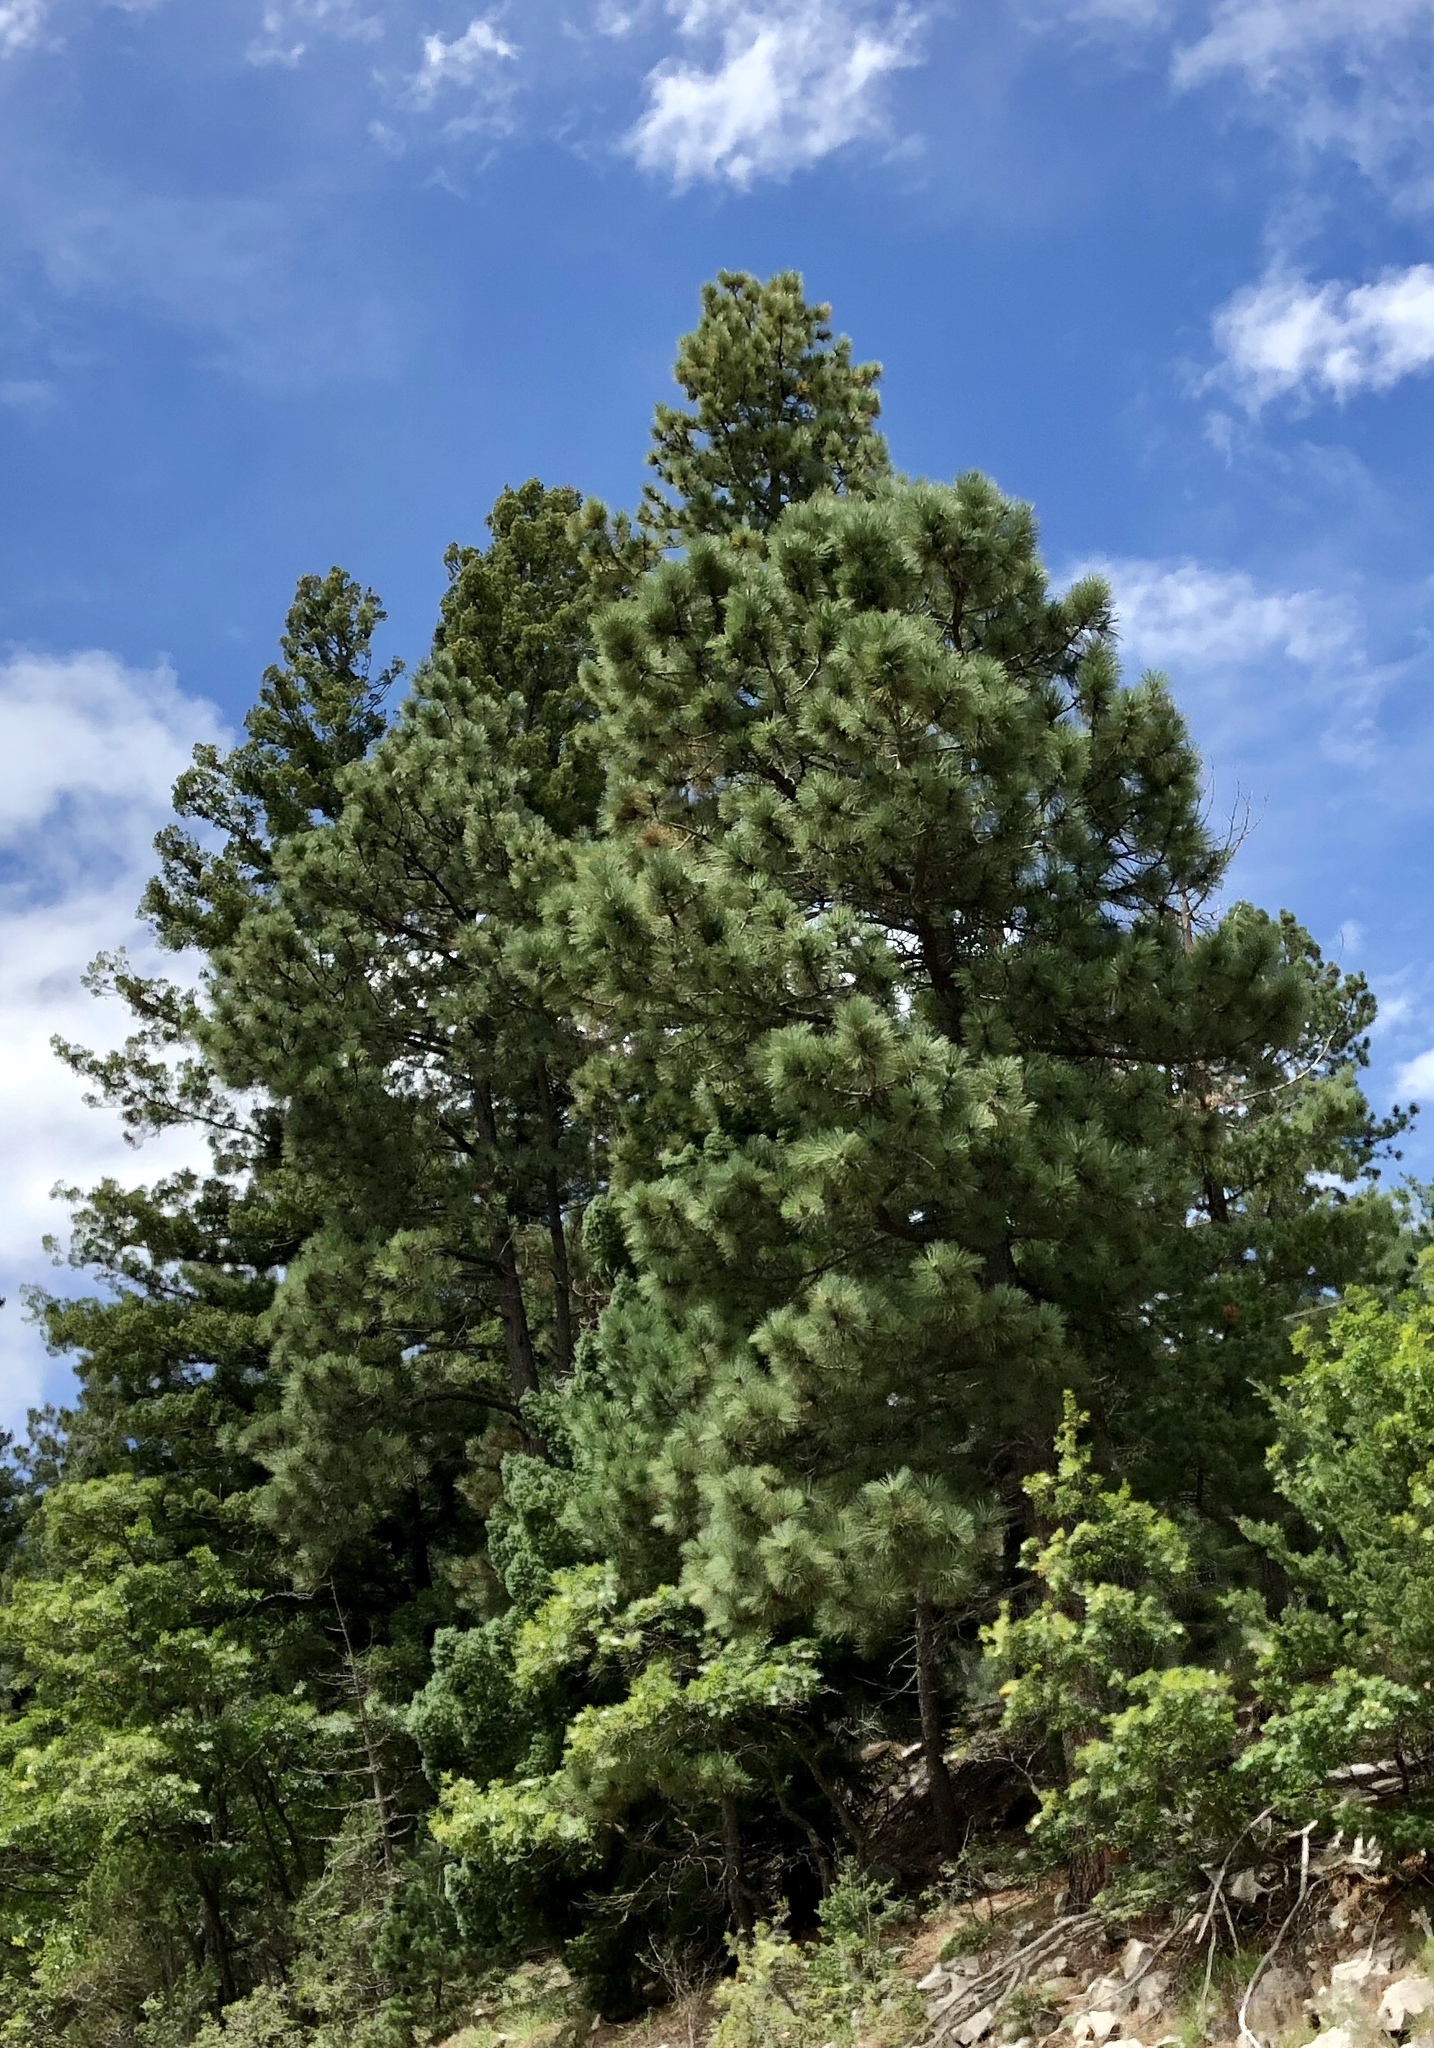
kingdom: Plantae
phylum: Tracheophyta
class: Pinopsida
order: Pinales
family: Pinaceae
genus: Pinus
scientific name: Pinus ponderosa
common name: Western yellow-pine
